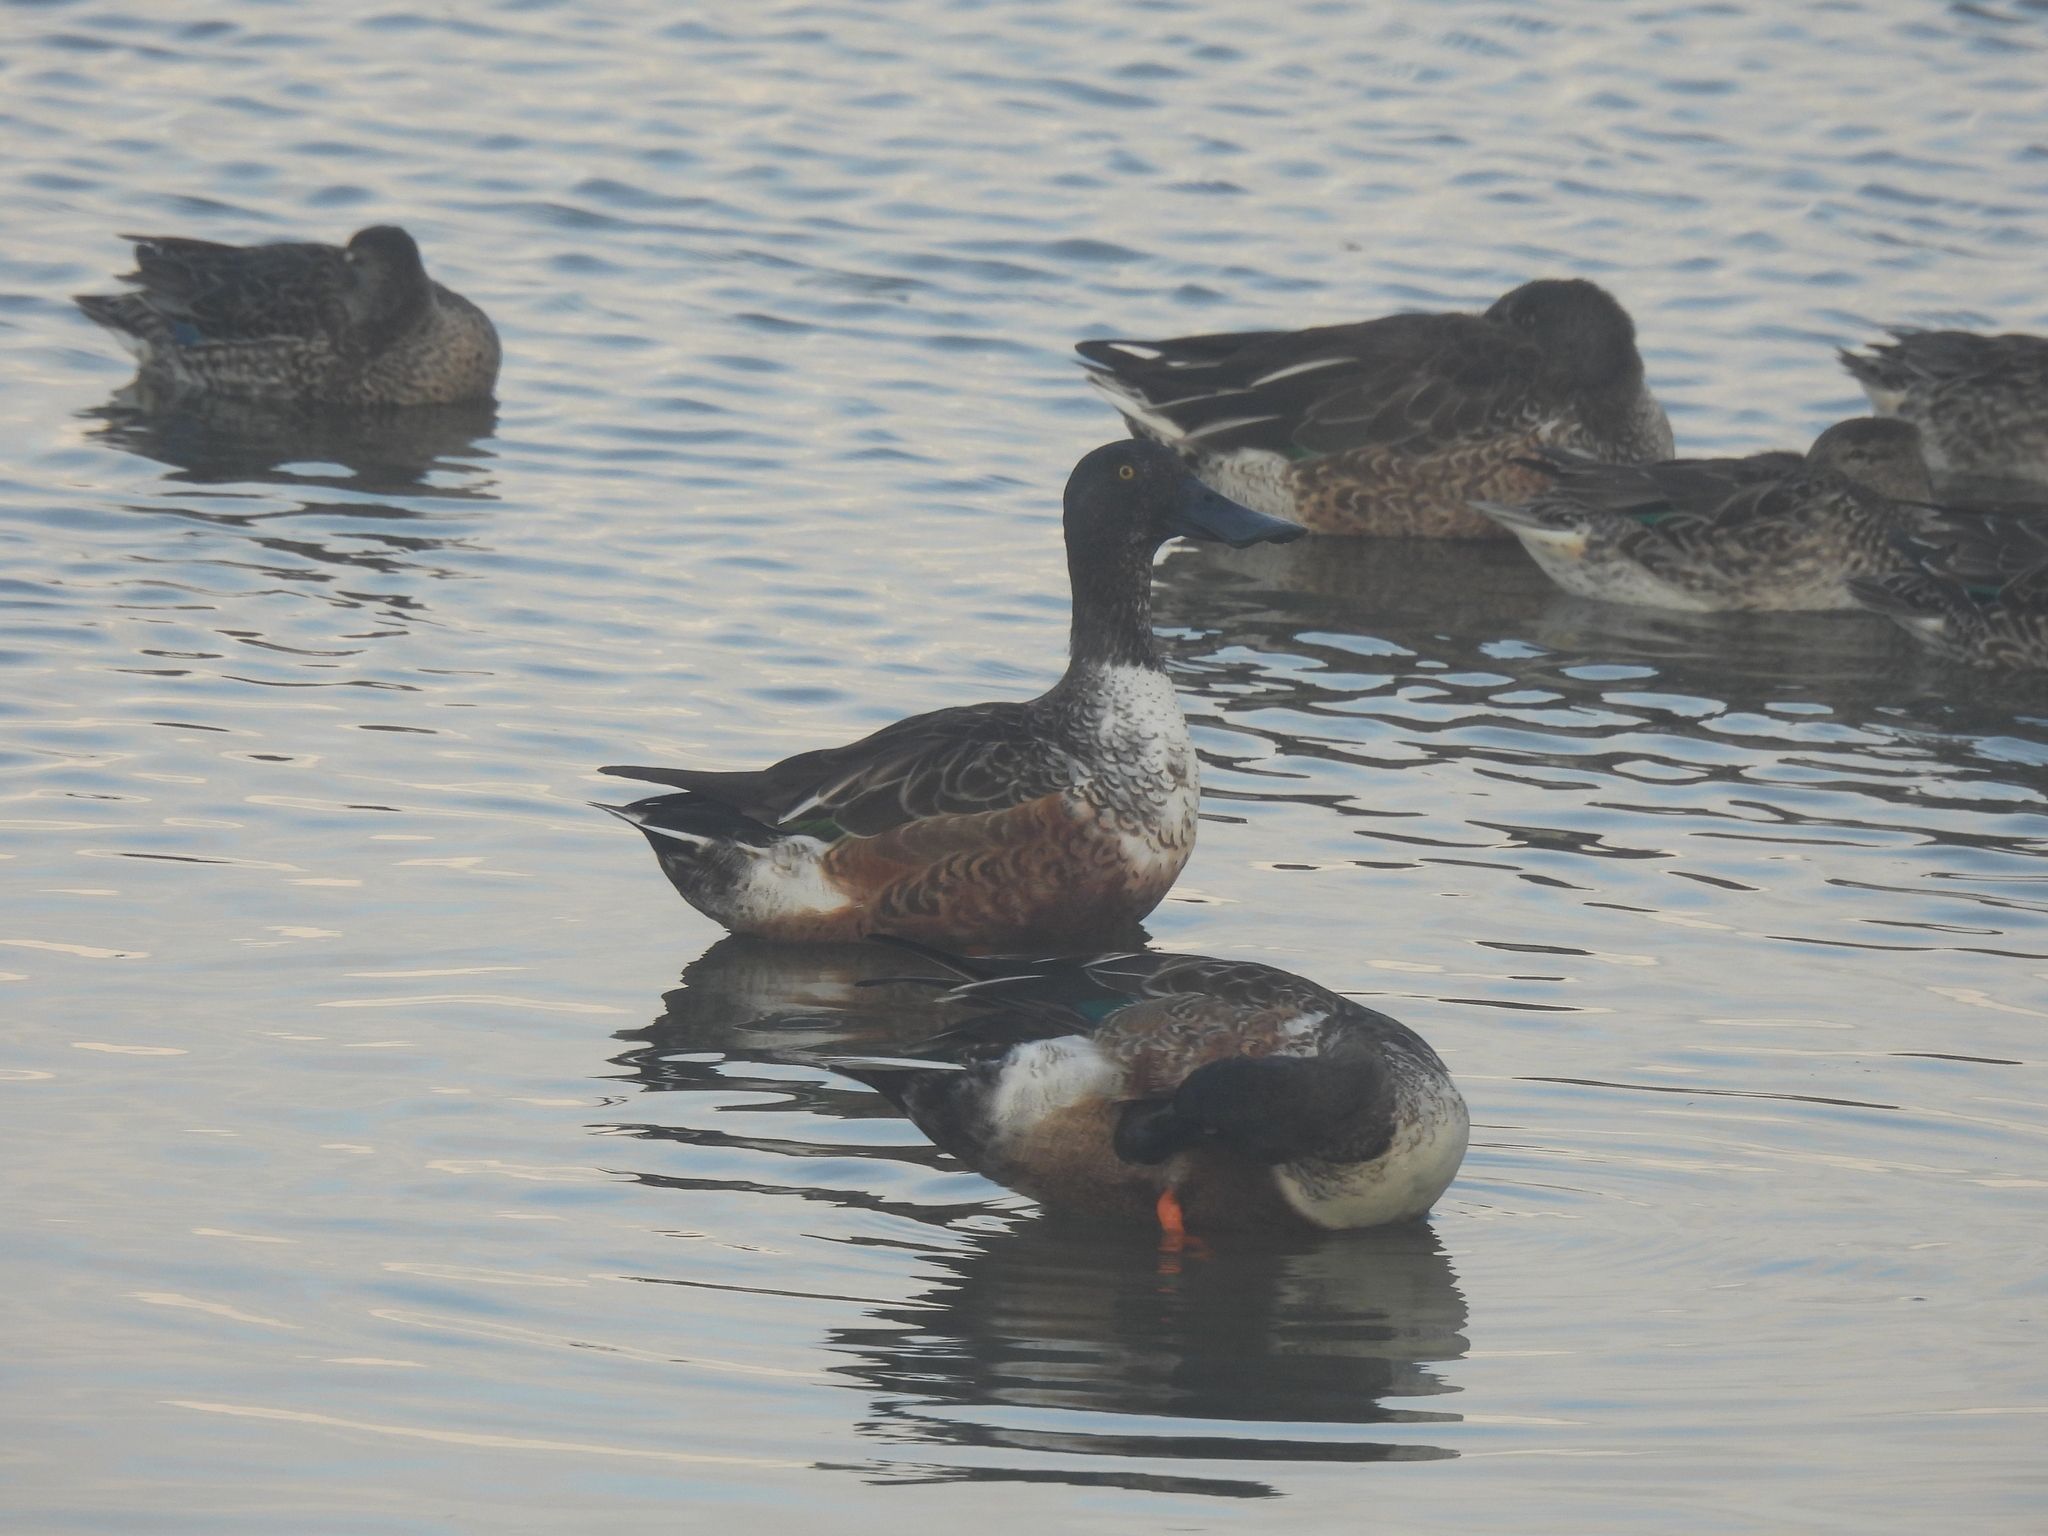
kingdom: Animalia
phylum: Chordata
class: Aves
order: Anseriformes
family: Anatidae
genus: Spatula
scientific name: Spatula clypeata
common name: Northern shoveler
